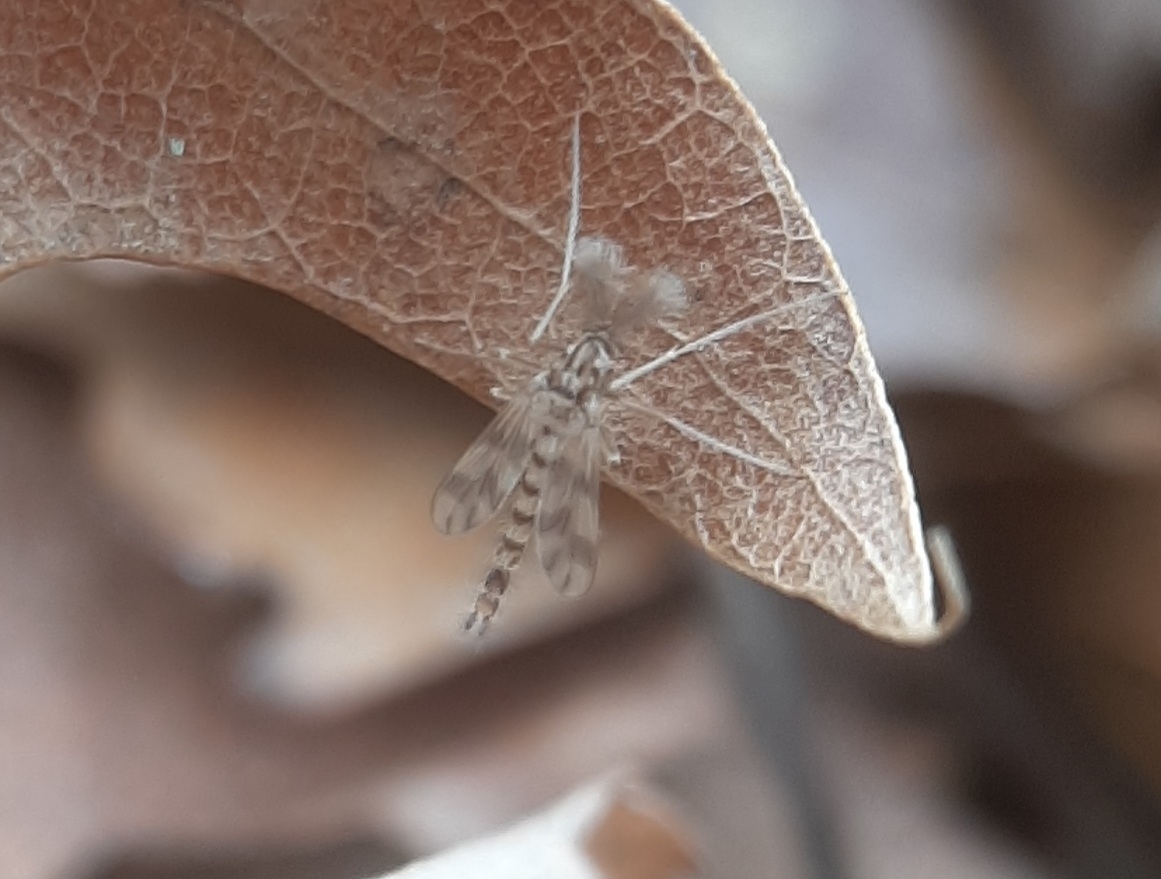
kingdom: Animalia
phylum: Arthropoda
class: Insecta
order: Diptera
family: Chironomidae
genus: Zavrelimyia
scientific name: Zavrelimyia sinuosa
